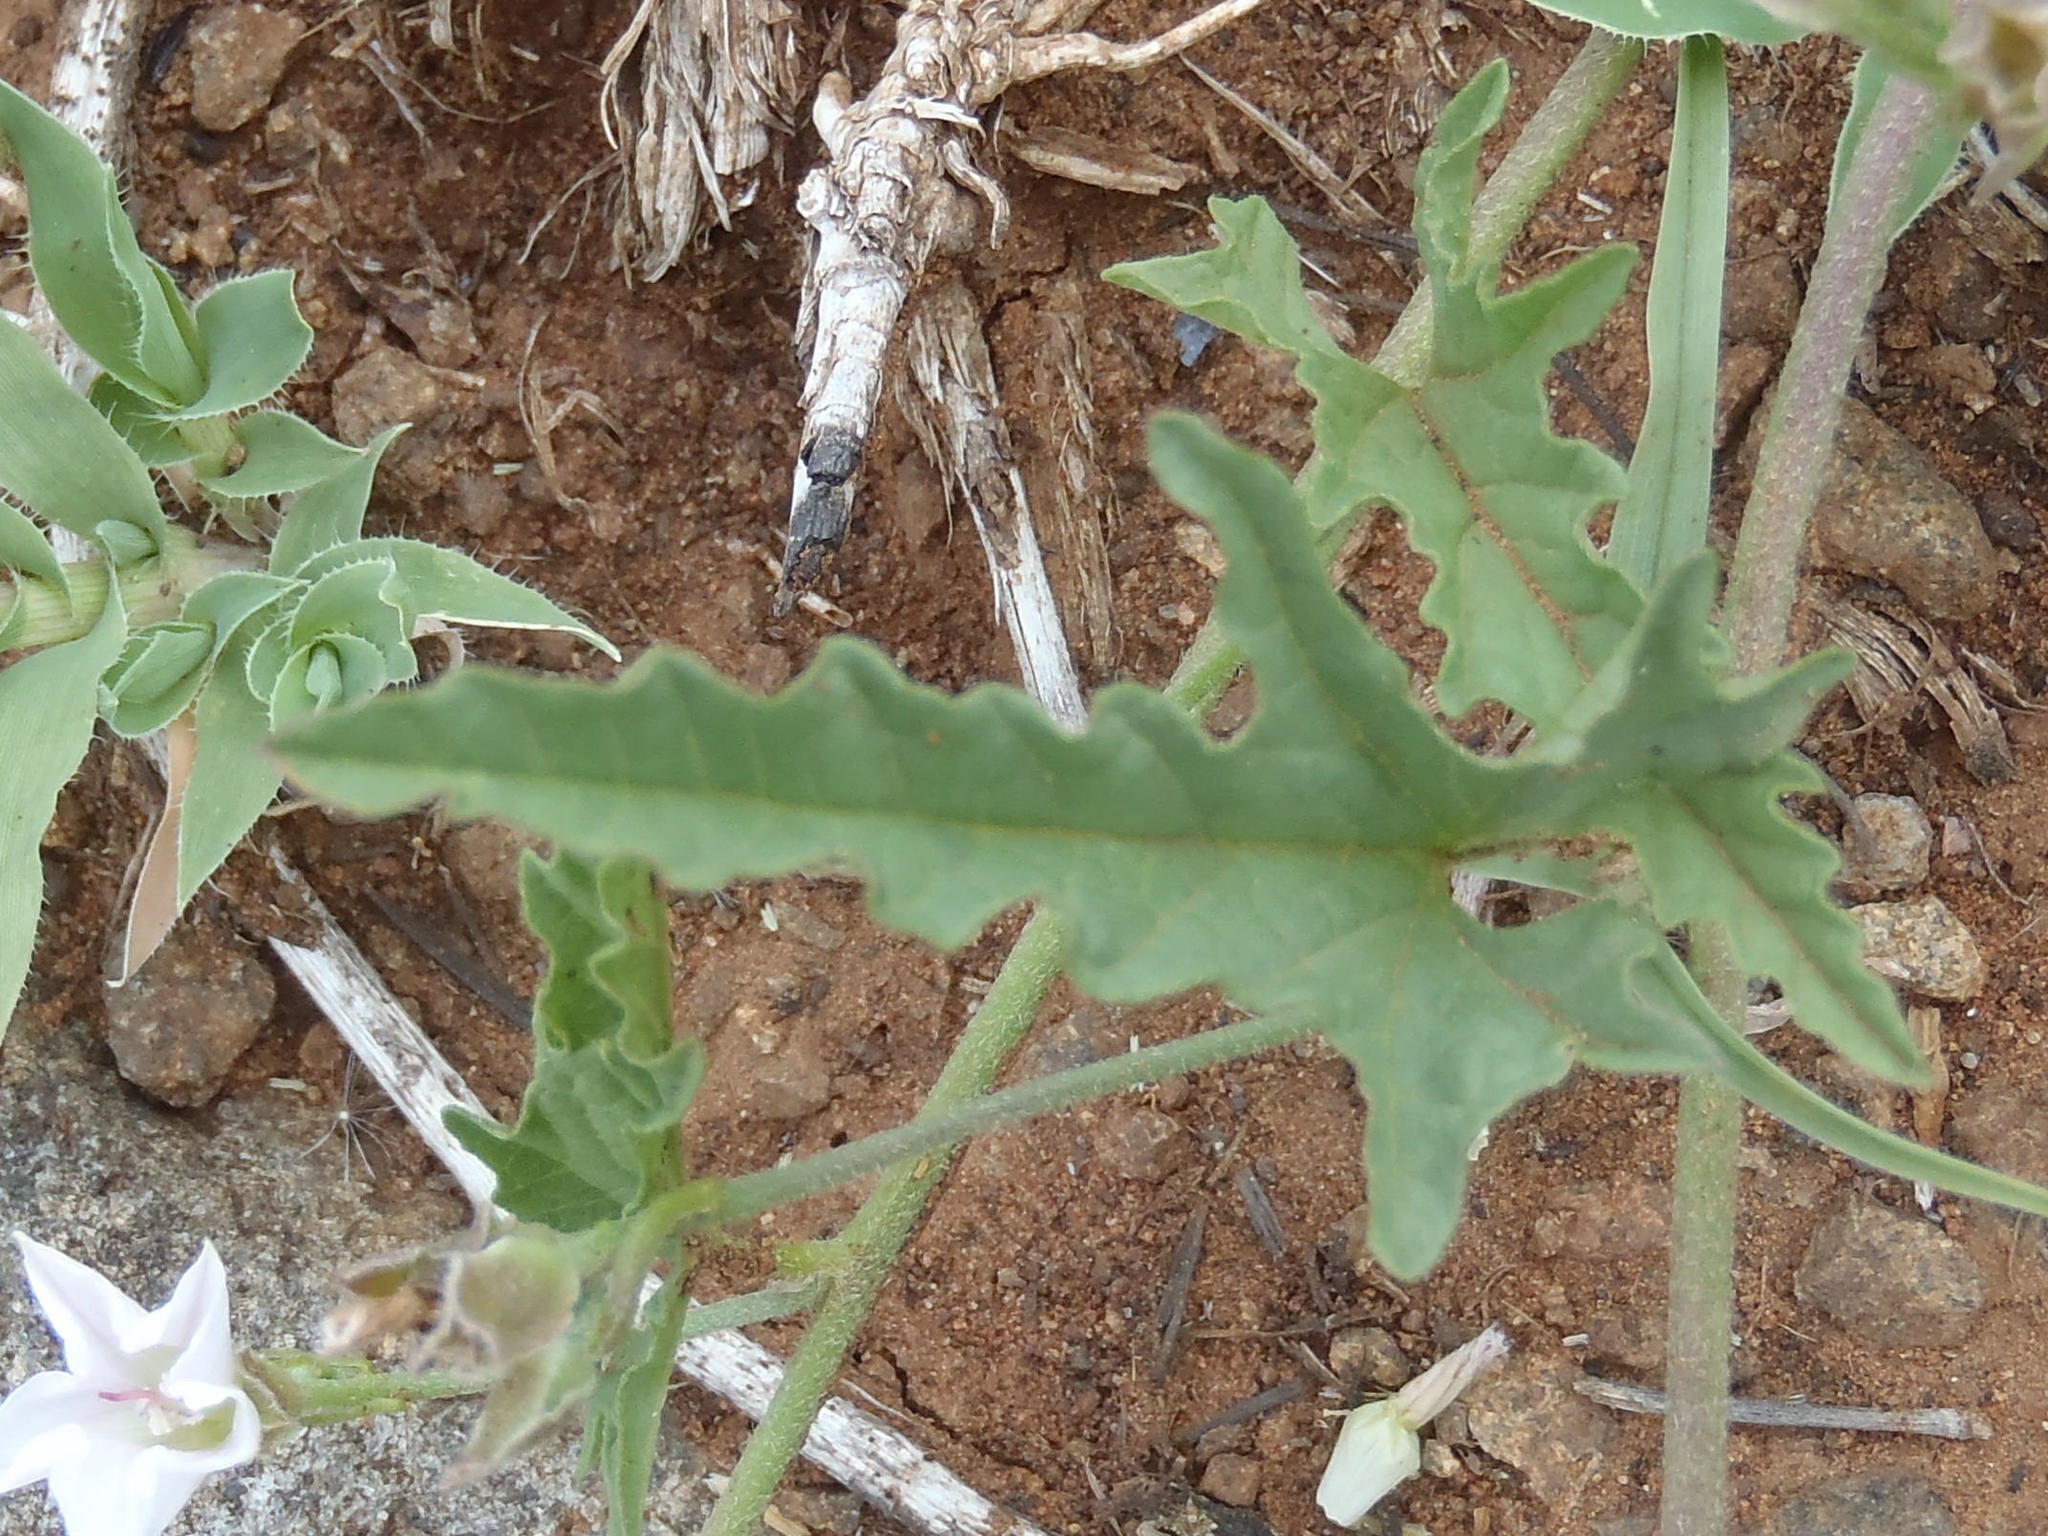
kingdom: Plantae
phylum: Tracheophyta
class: Magnoliopsida
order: Solanales
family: Convolvulaceae
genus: Convolvulus
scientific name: Convolvulus sagittatus
